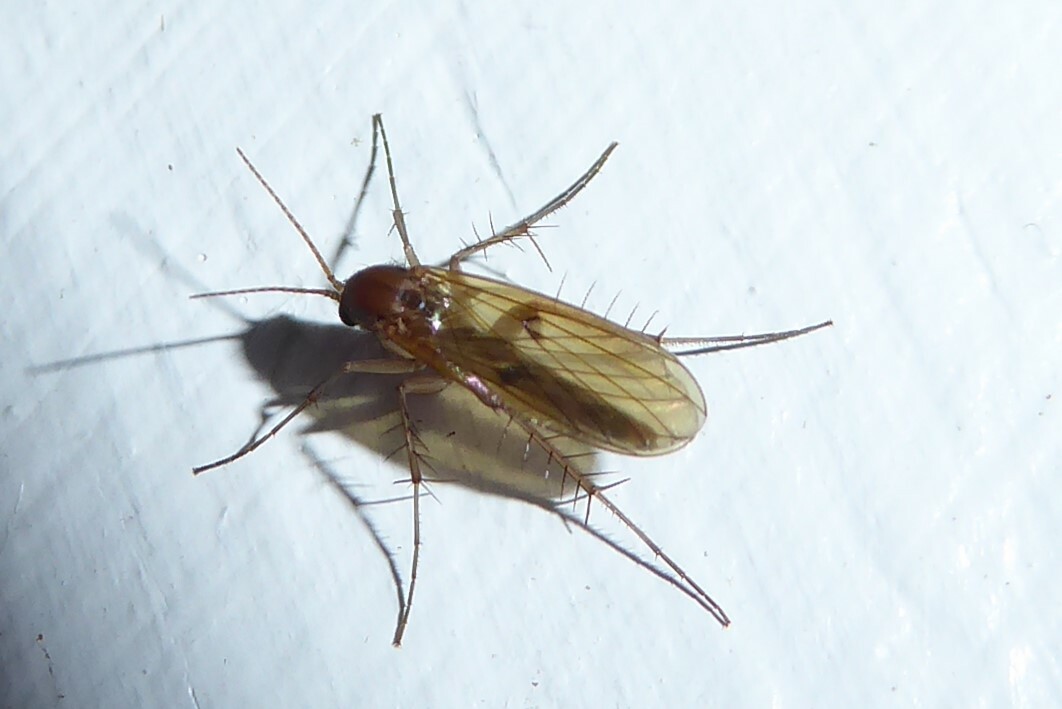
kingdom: Animalia
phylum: Arthropoda
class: Insecta
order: Diptera
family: Mycetophilidae
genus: Mycetophila
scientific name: Mycetophila fagi
